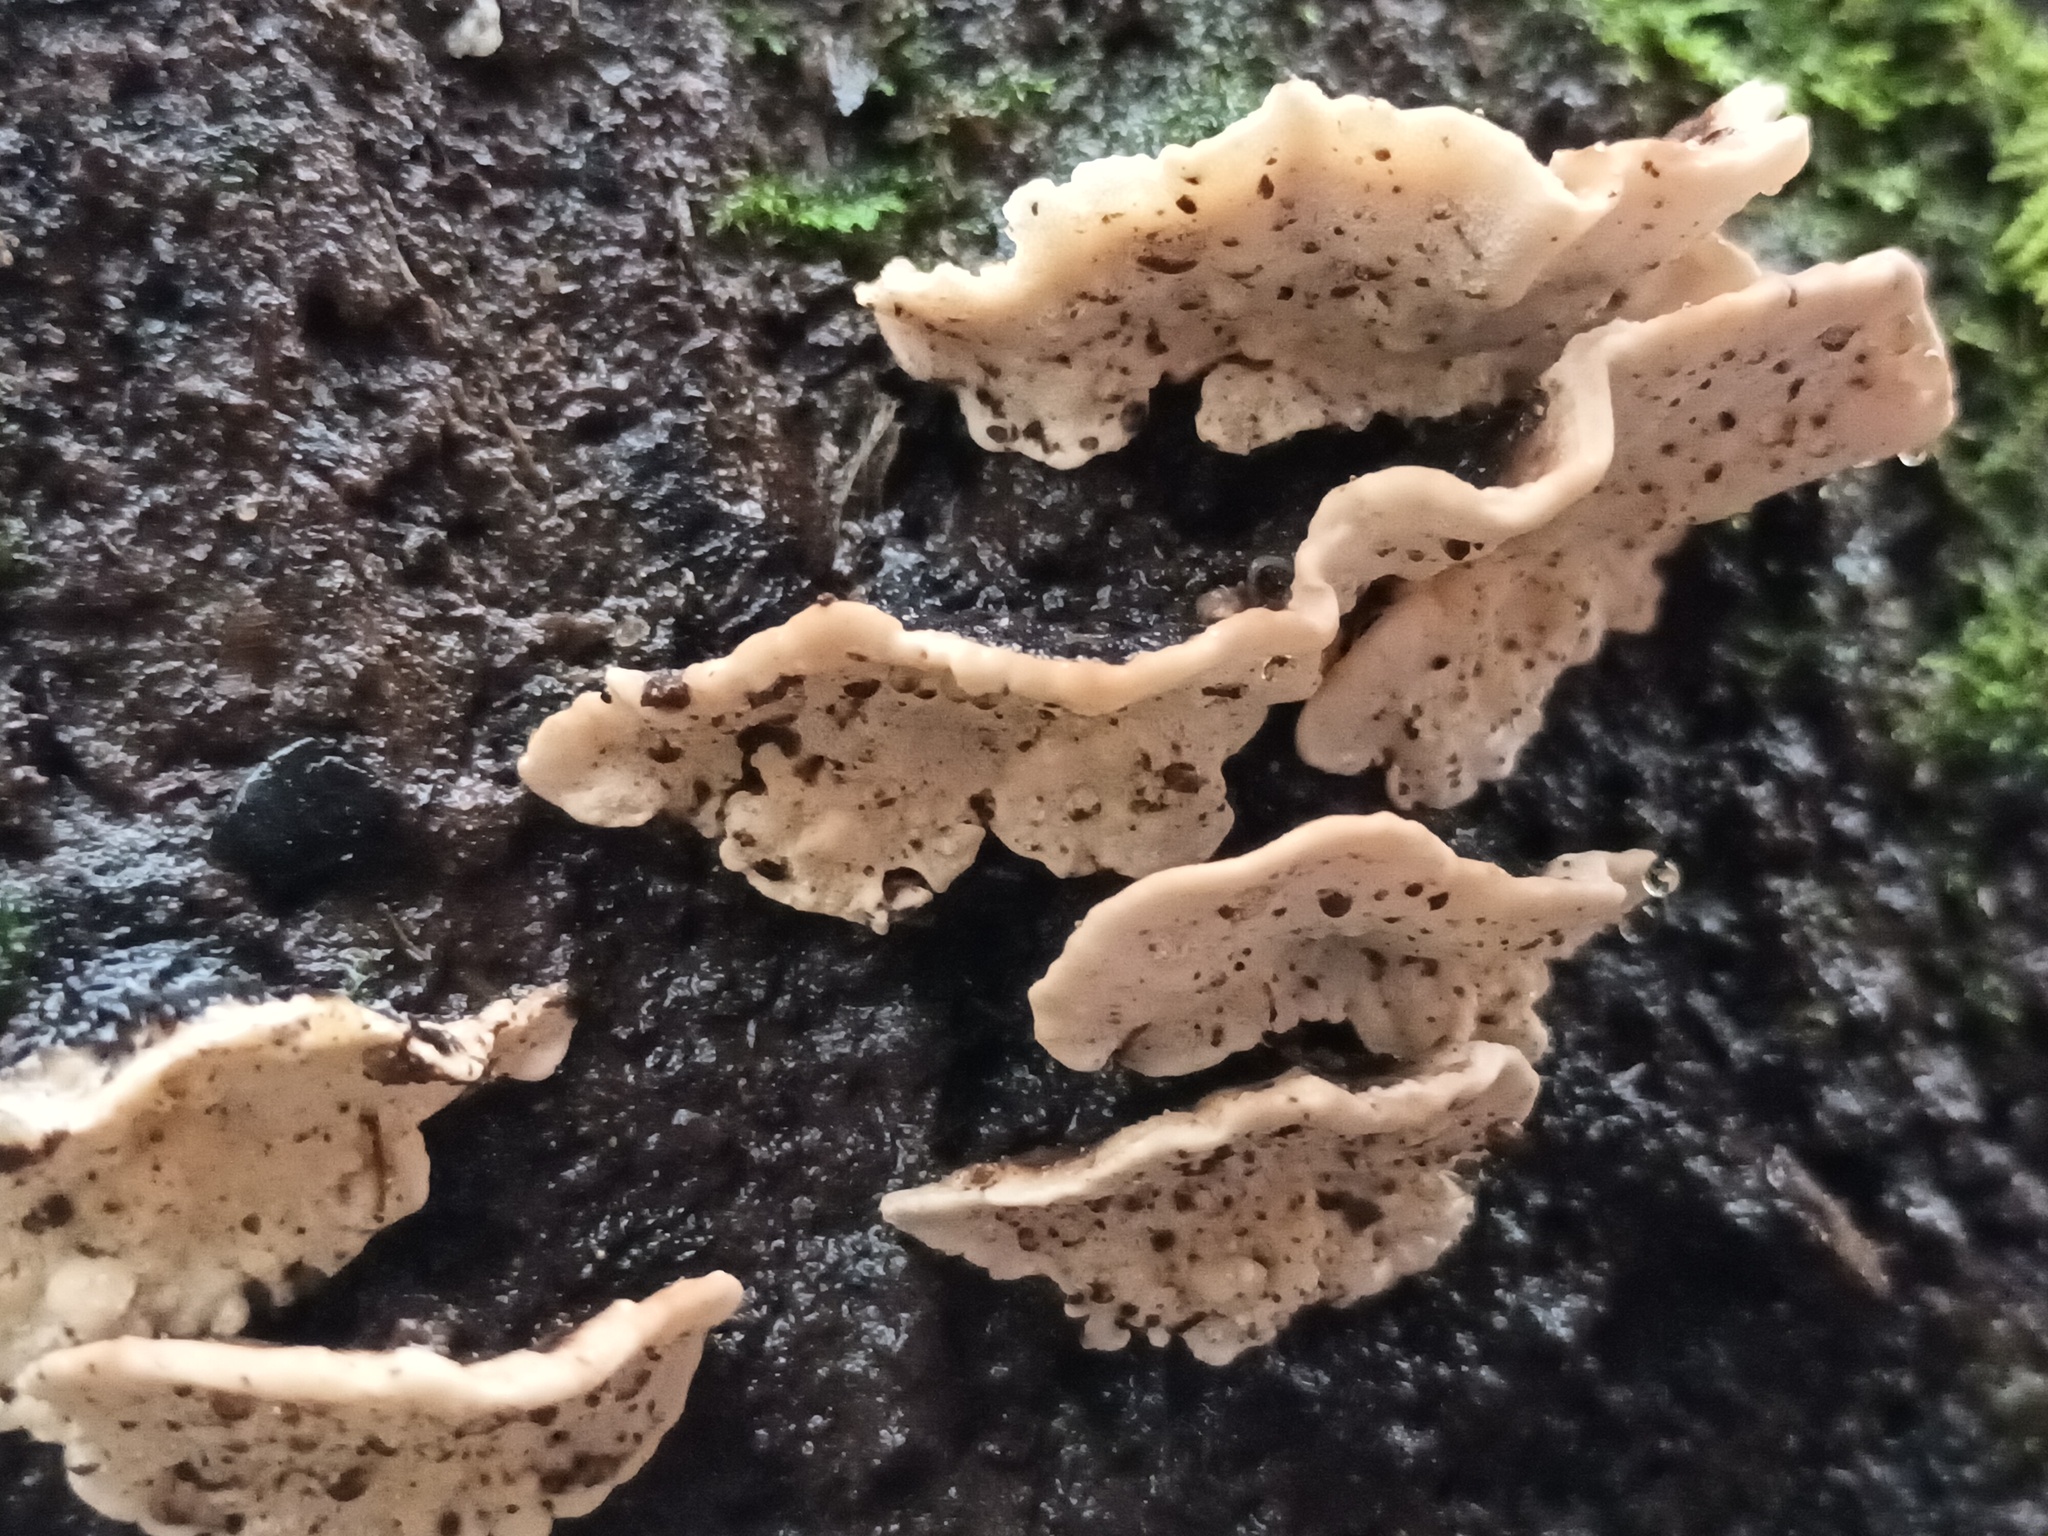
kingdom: Fungi
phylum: Basidiomycota
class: Agaricomycetes
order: Polyporales
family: Polyporaceae
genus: Trametes
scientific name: Trametes versicolor
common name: Turkeytail
